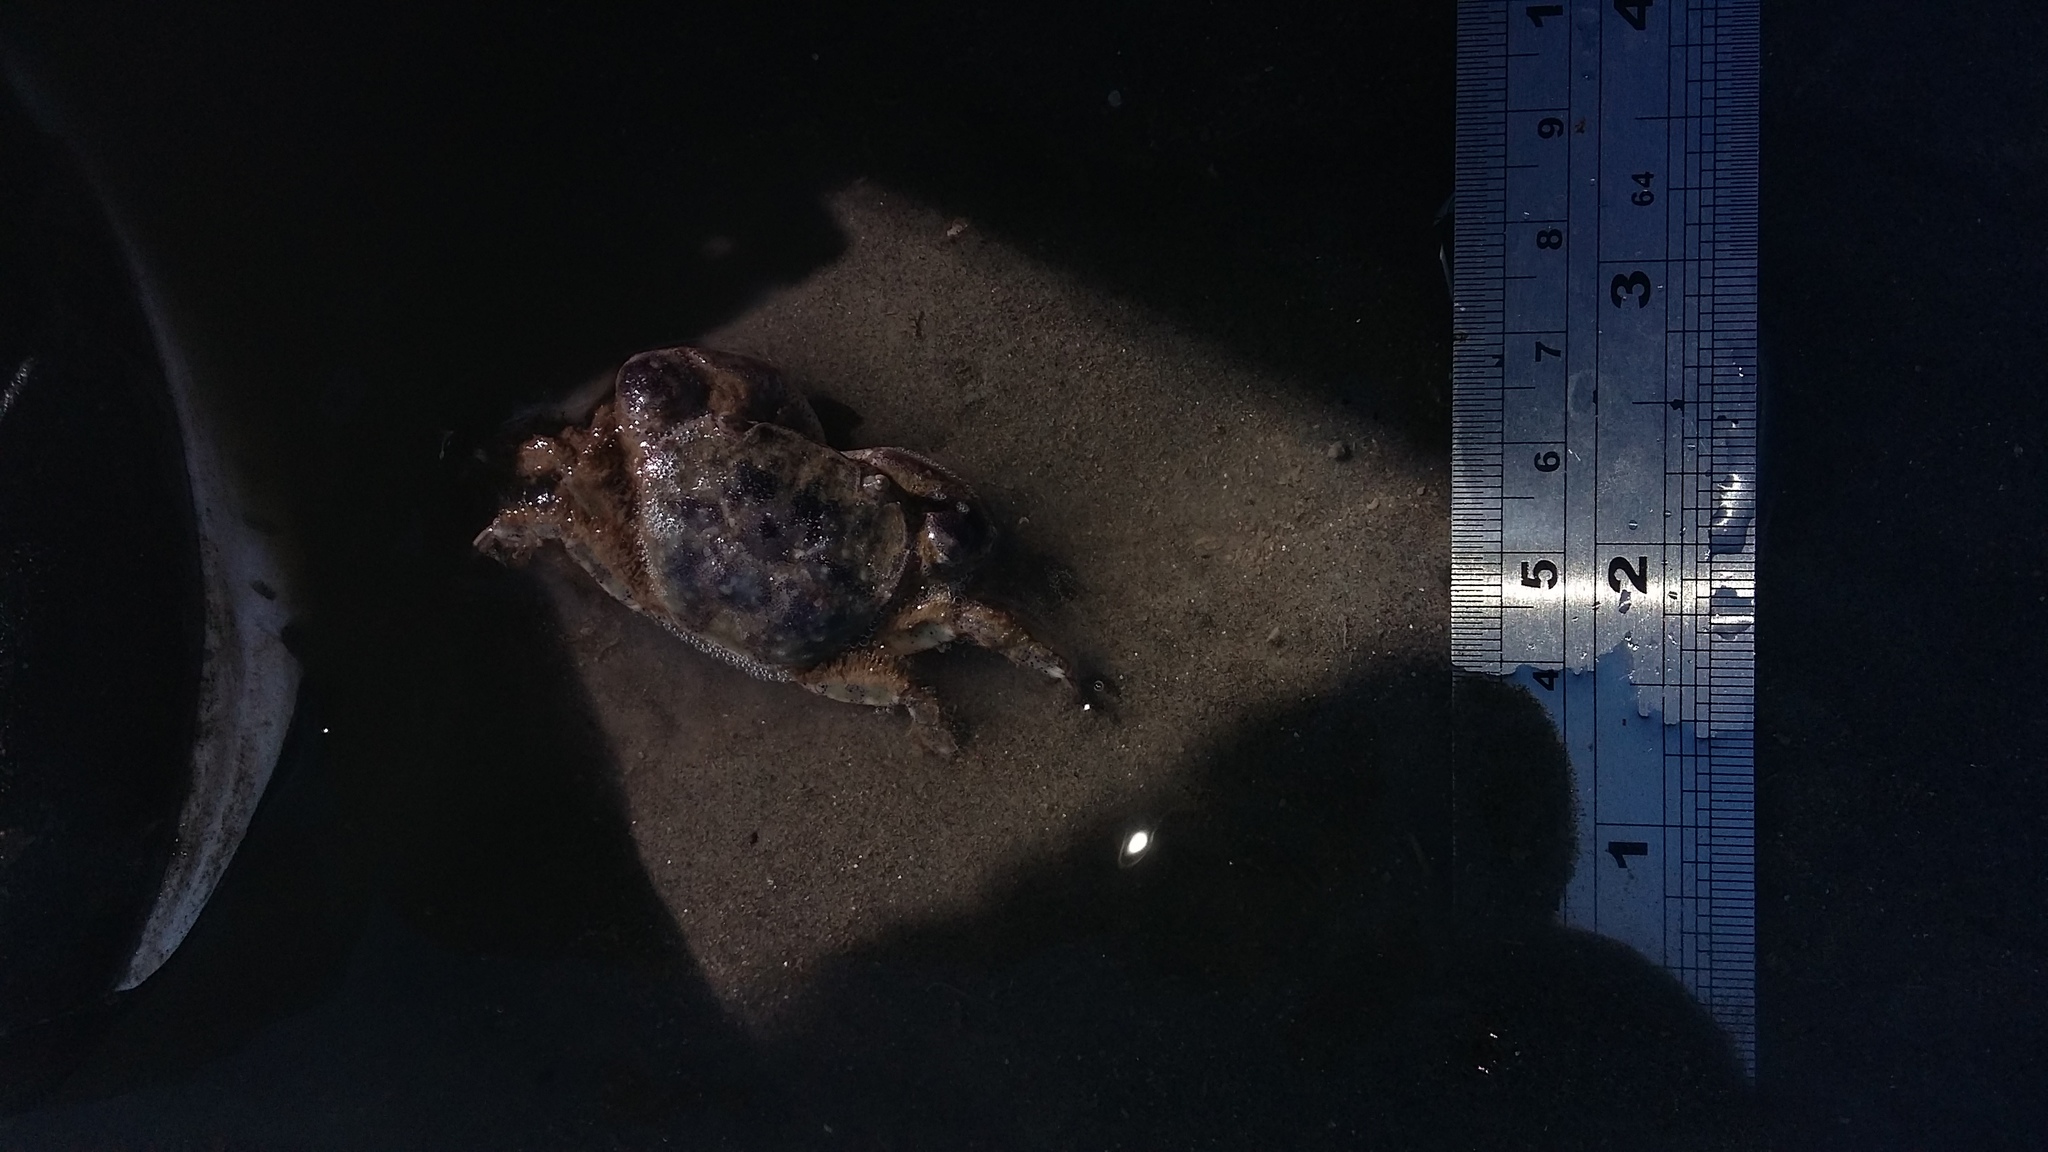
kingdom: Animalia
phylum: Arthropoda
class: Malacostraca
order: Decapoda
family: Varunidae
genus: Hemigrapsus
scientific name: Hemigrapsus crenulatus
